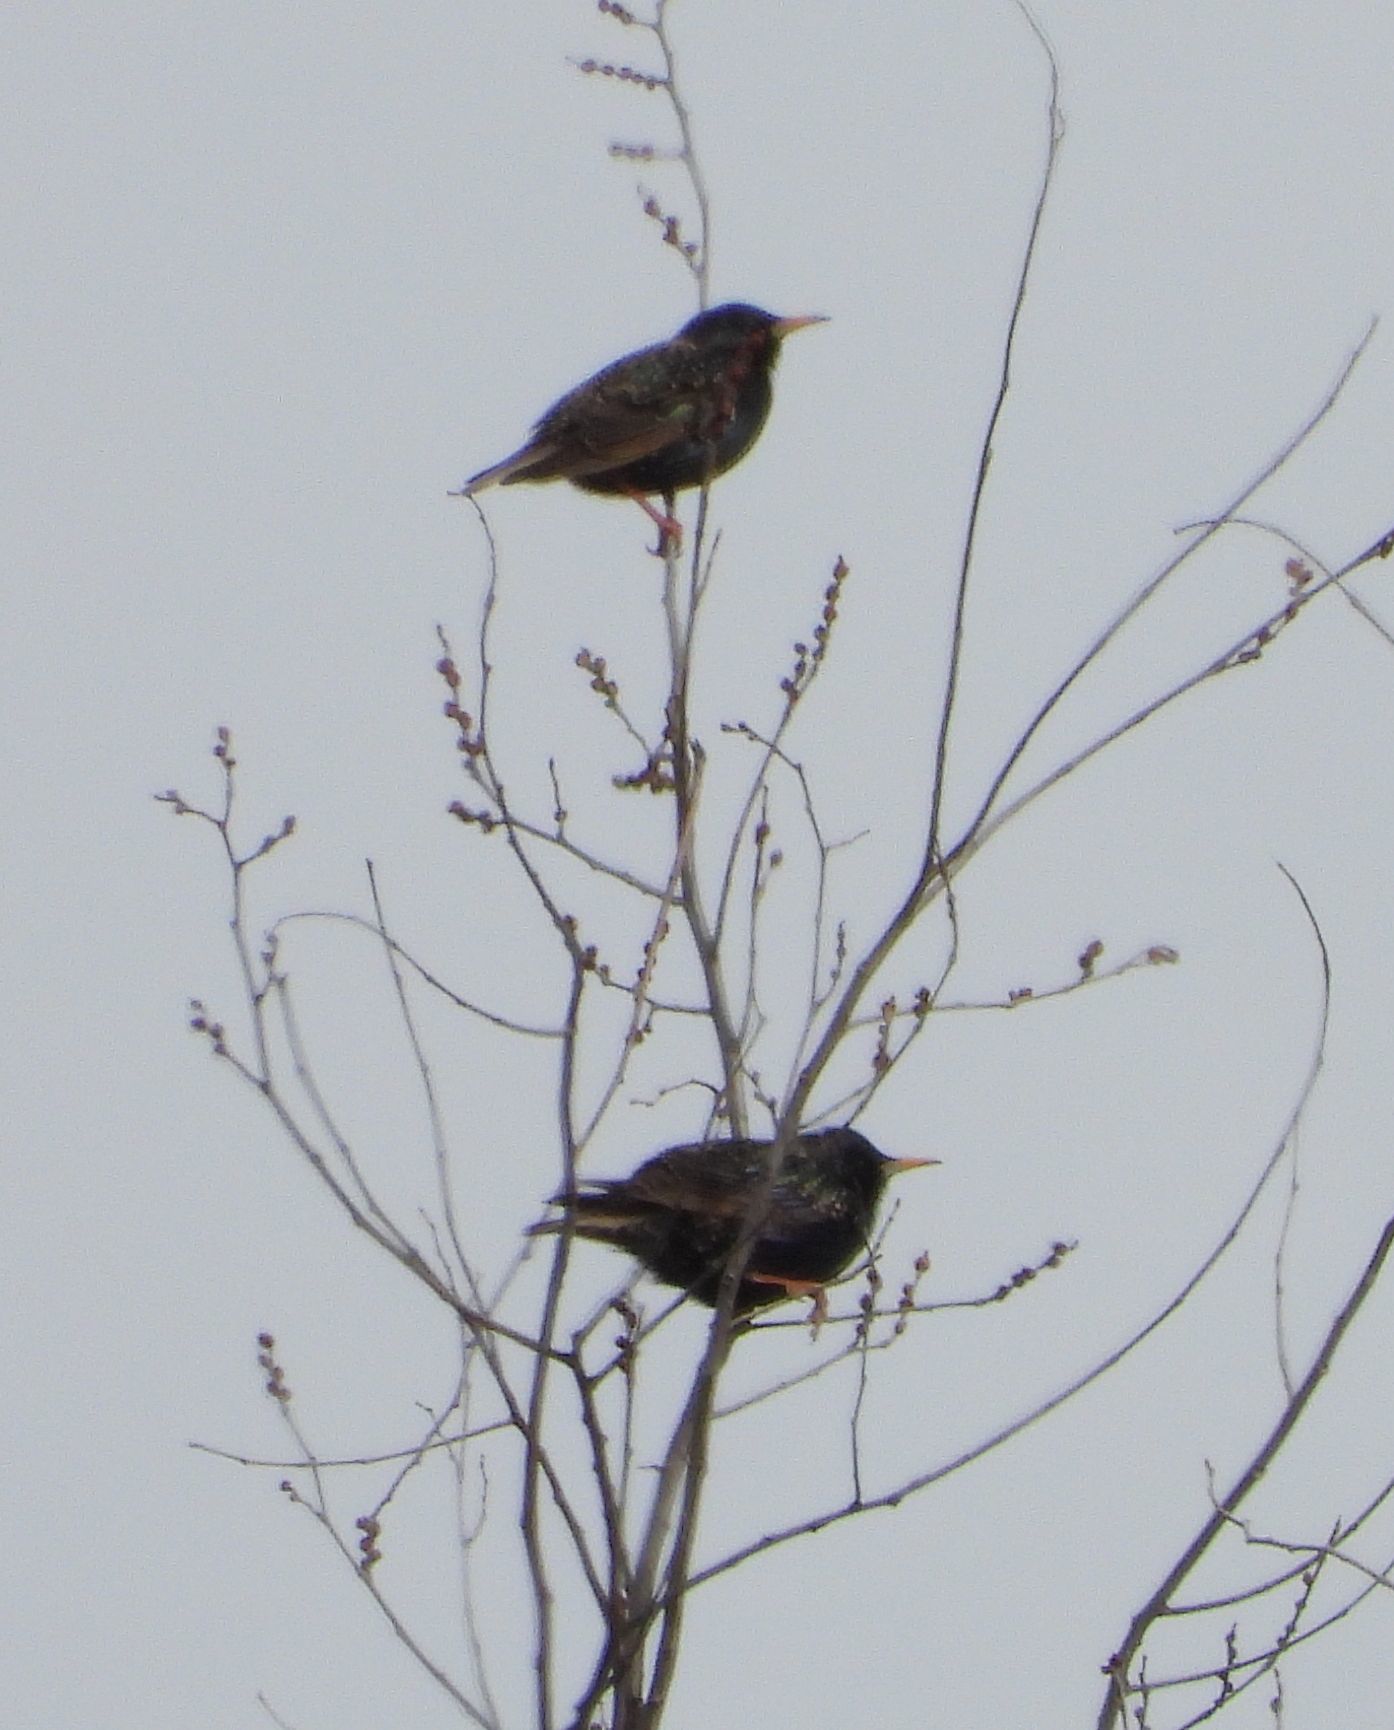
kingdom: Animalia
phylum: Chordata
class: Aves
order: Passeriformes
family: Sturnidae
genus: Sturnus
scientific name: Sturnus vulgaris
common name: Common starling
